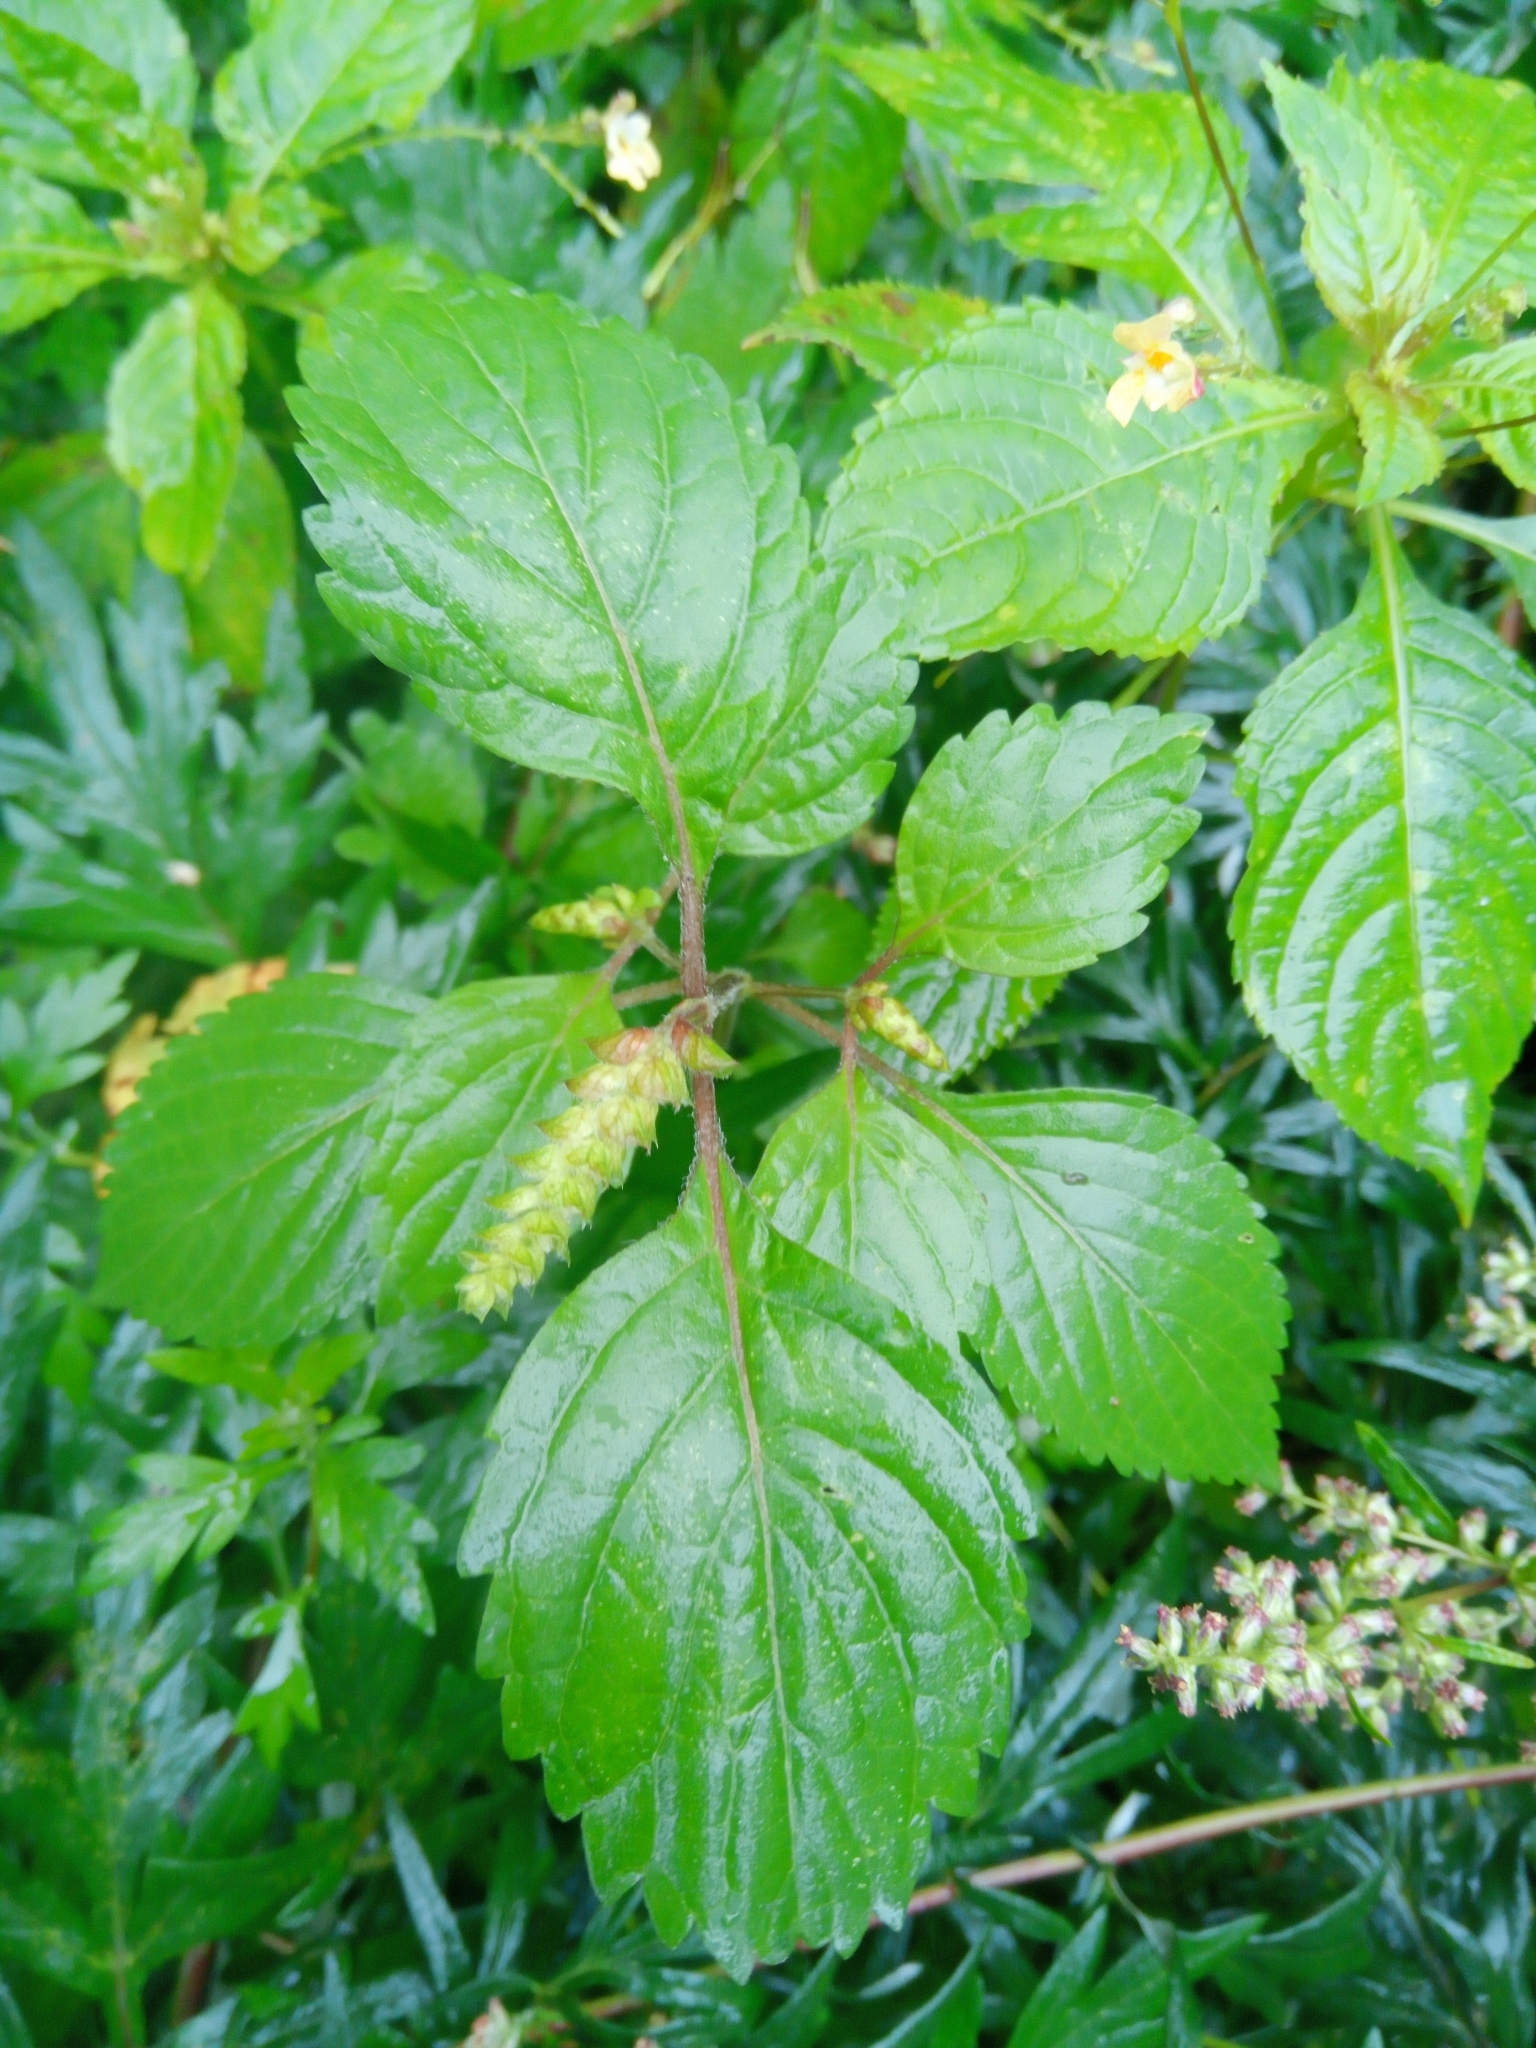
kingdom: Plantae
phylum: Tracheophyta
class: Magnoliopsida
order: Lamiales
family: Lamiaceae
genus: Elsholtzia
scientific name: Elsholtzia ciliata
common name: Ciliate elsholtzia
